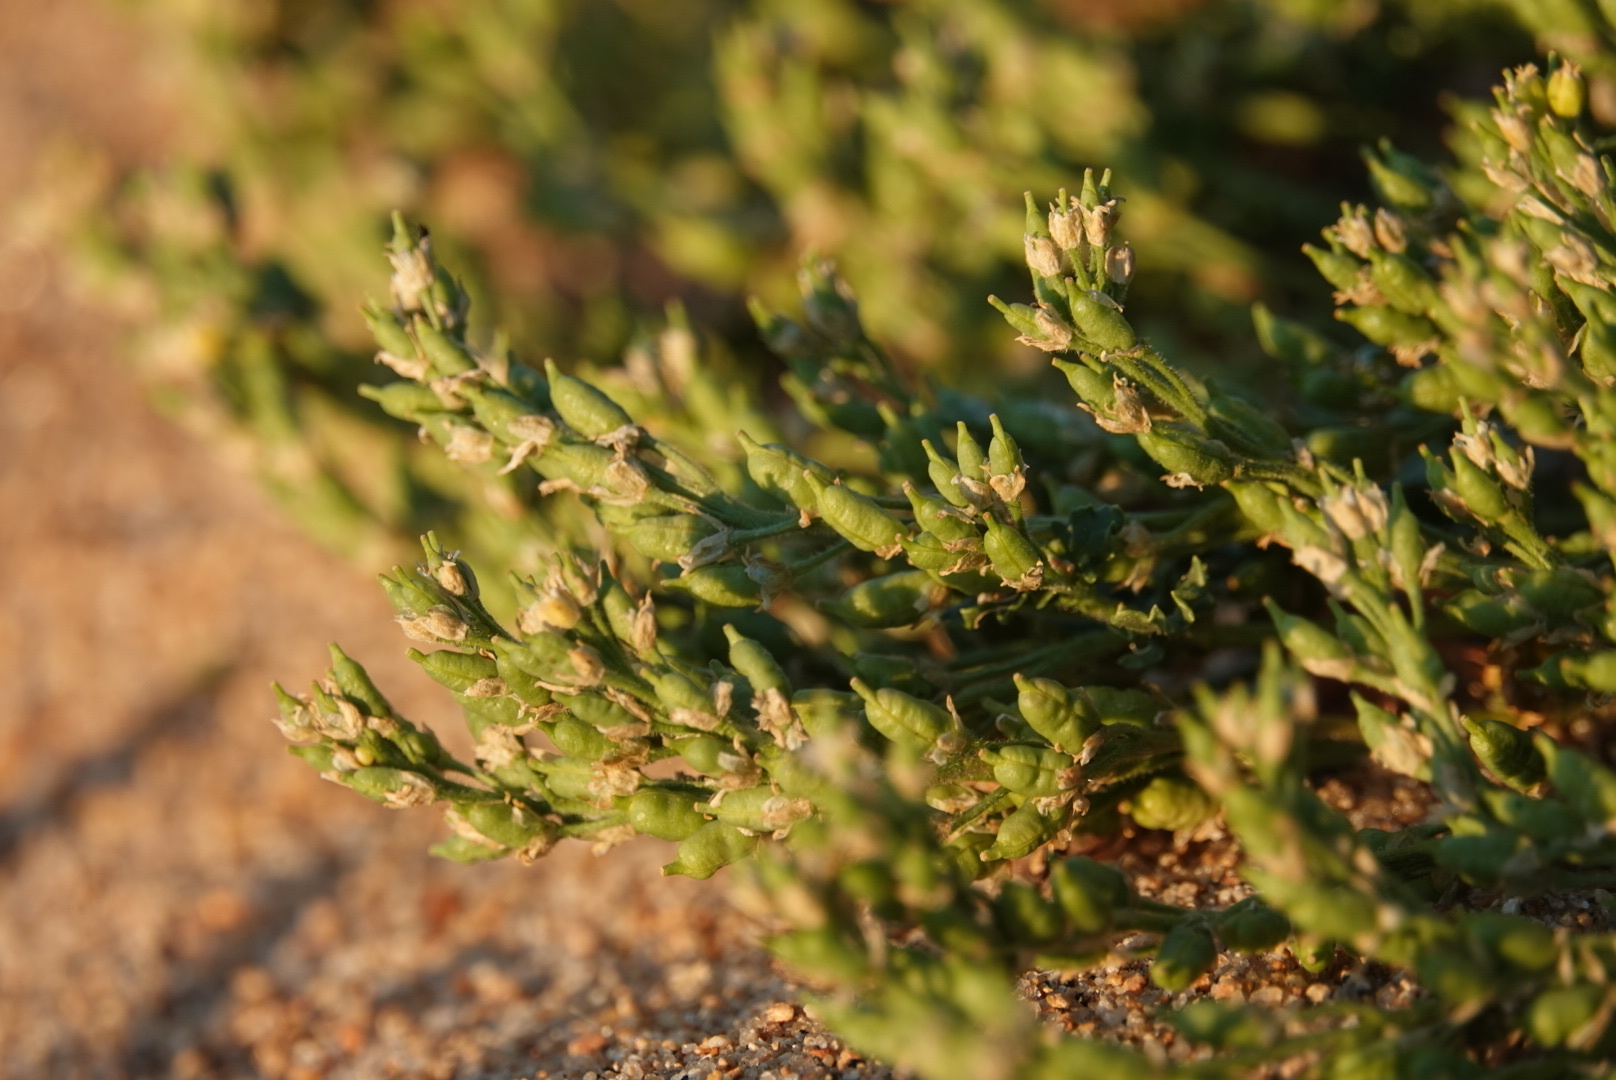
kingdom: Plantae
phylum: Tracheophyta
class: Magnoliopsida
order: Brassicales
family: Brassicaceae
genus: Rorippa
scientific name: Rorippa subumbellata
